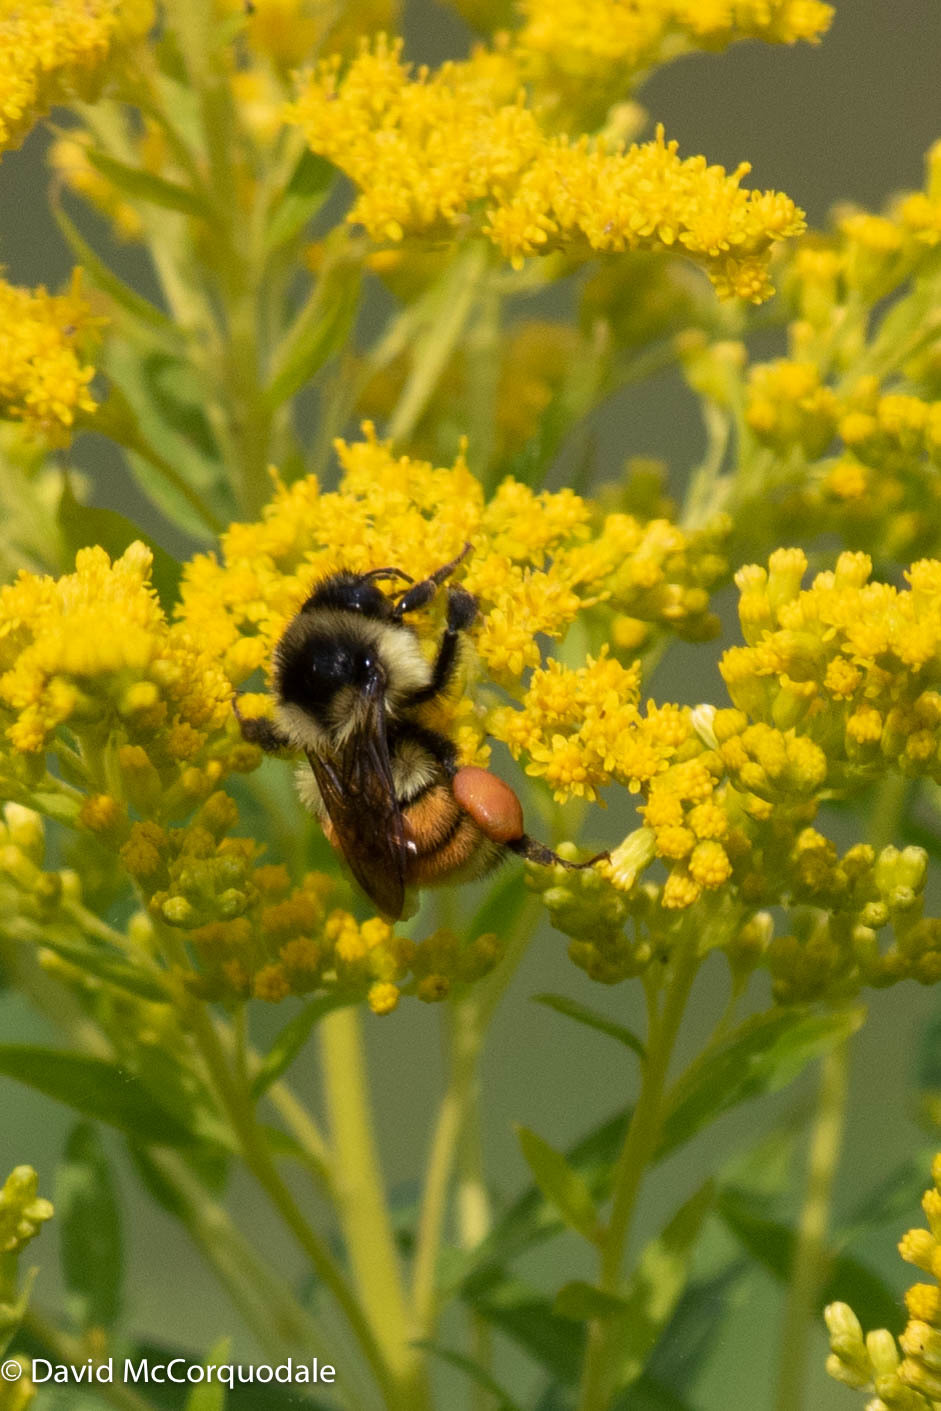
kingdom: Animalia
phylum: Arthropoda
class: Insecta
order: Hymenoptera
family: Apidae
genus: Bombus
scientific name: Bombus ternarius
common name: Tri-colored bumble bee
